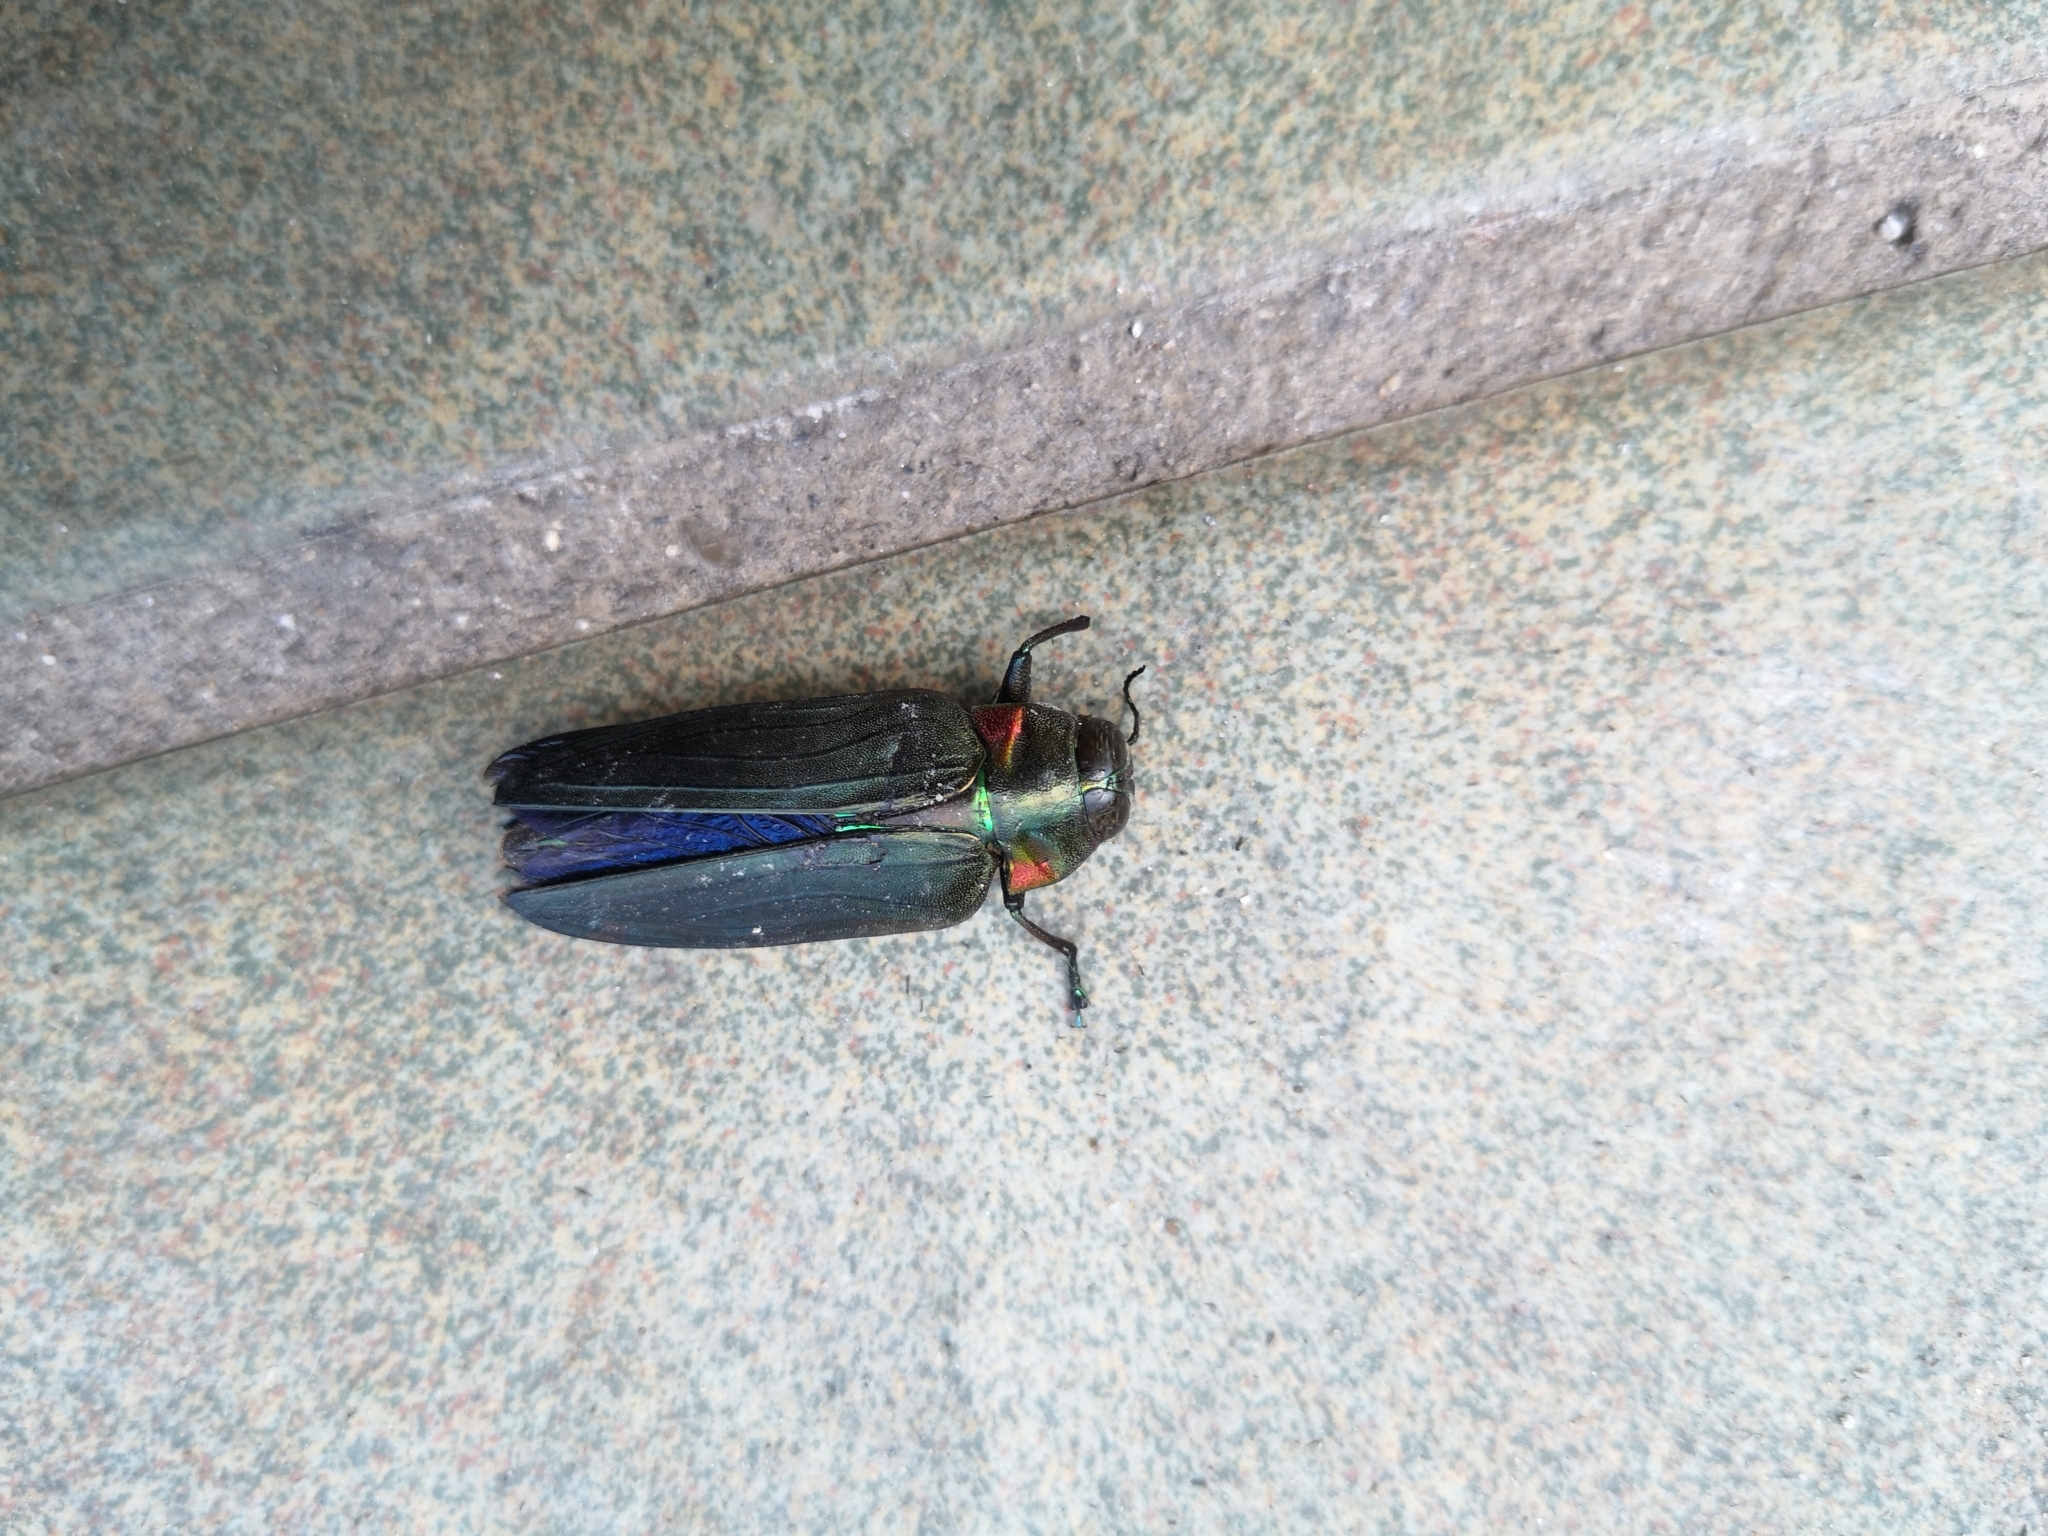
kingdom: Animalia
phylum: Arthropoda
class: Insecta
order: Coleoptera
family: Buprestidae
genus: Belionota
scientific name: Belionota prasina
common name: Jewel beetle
